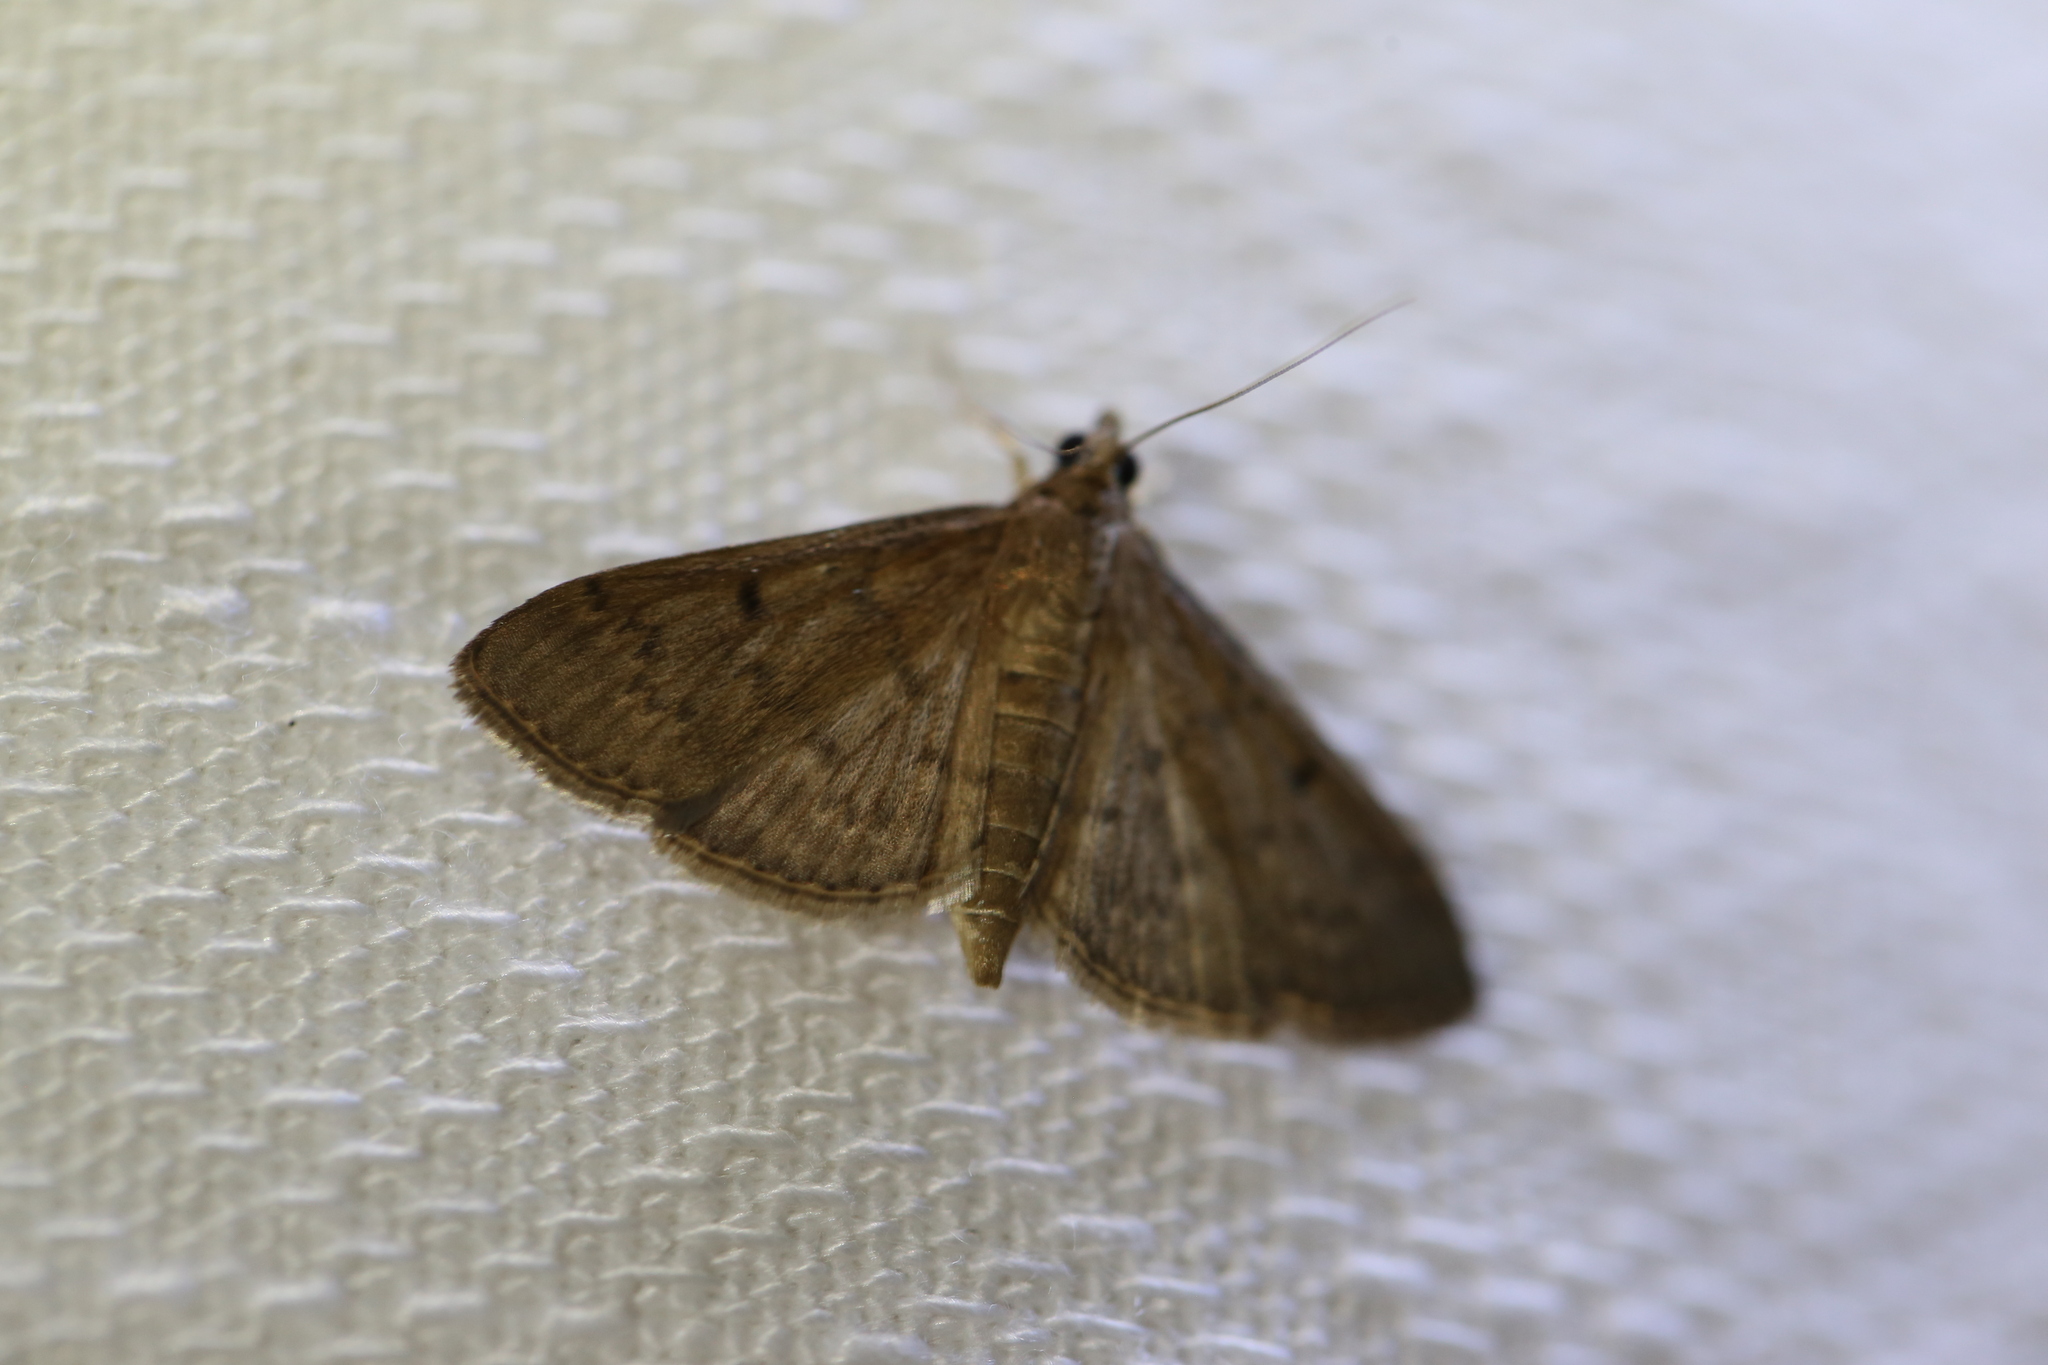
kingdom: Animalia
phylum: Arthropoda
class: Insecta
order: Lepidoptera
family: Crambidae
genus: Herpetogramma
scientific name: Herpetogramma licarsisalis
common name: Grass webworm
